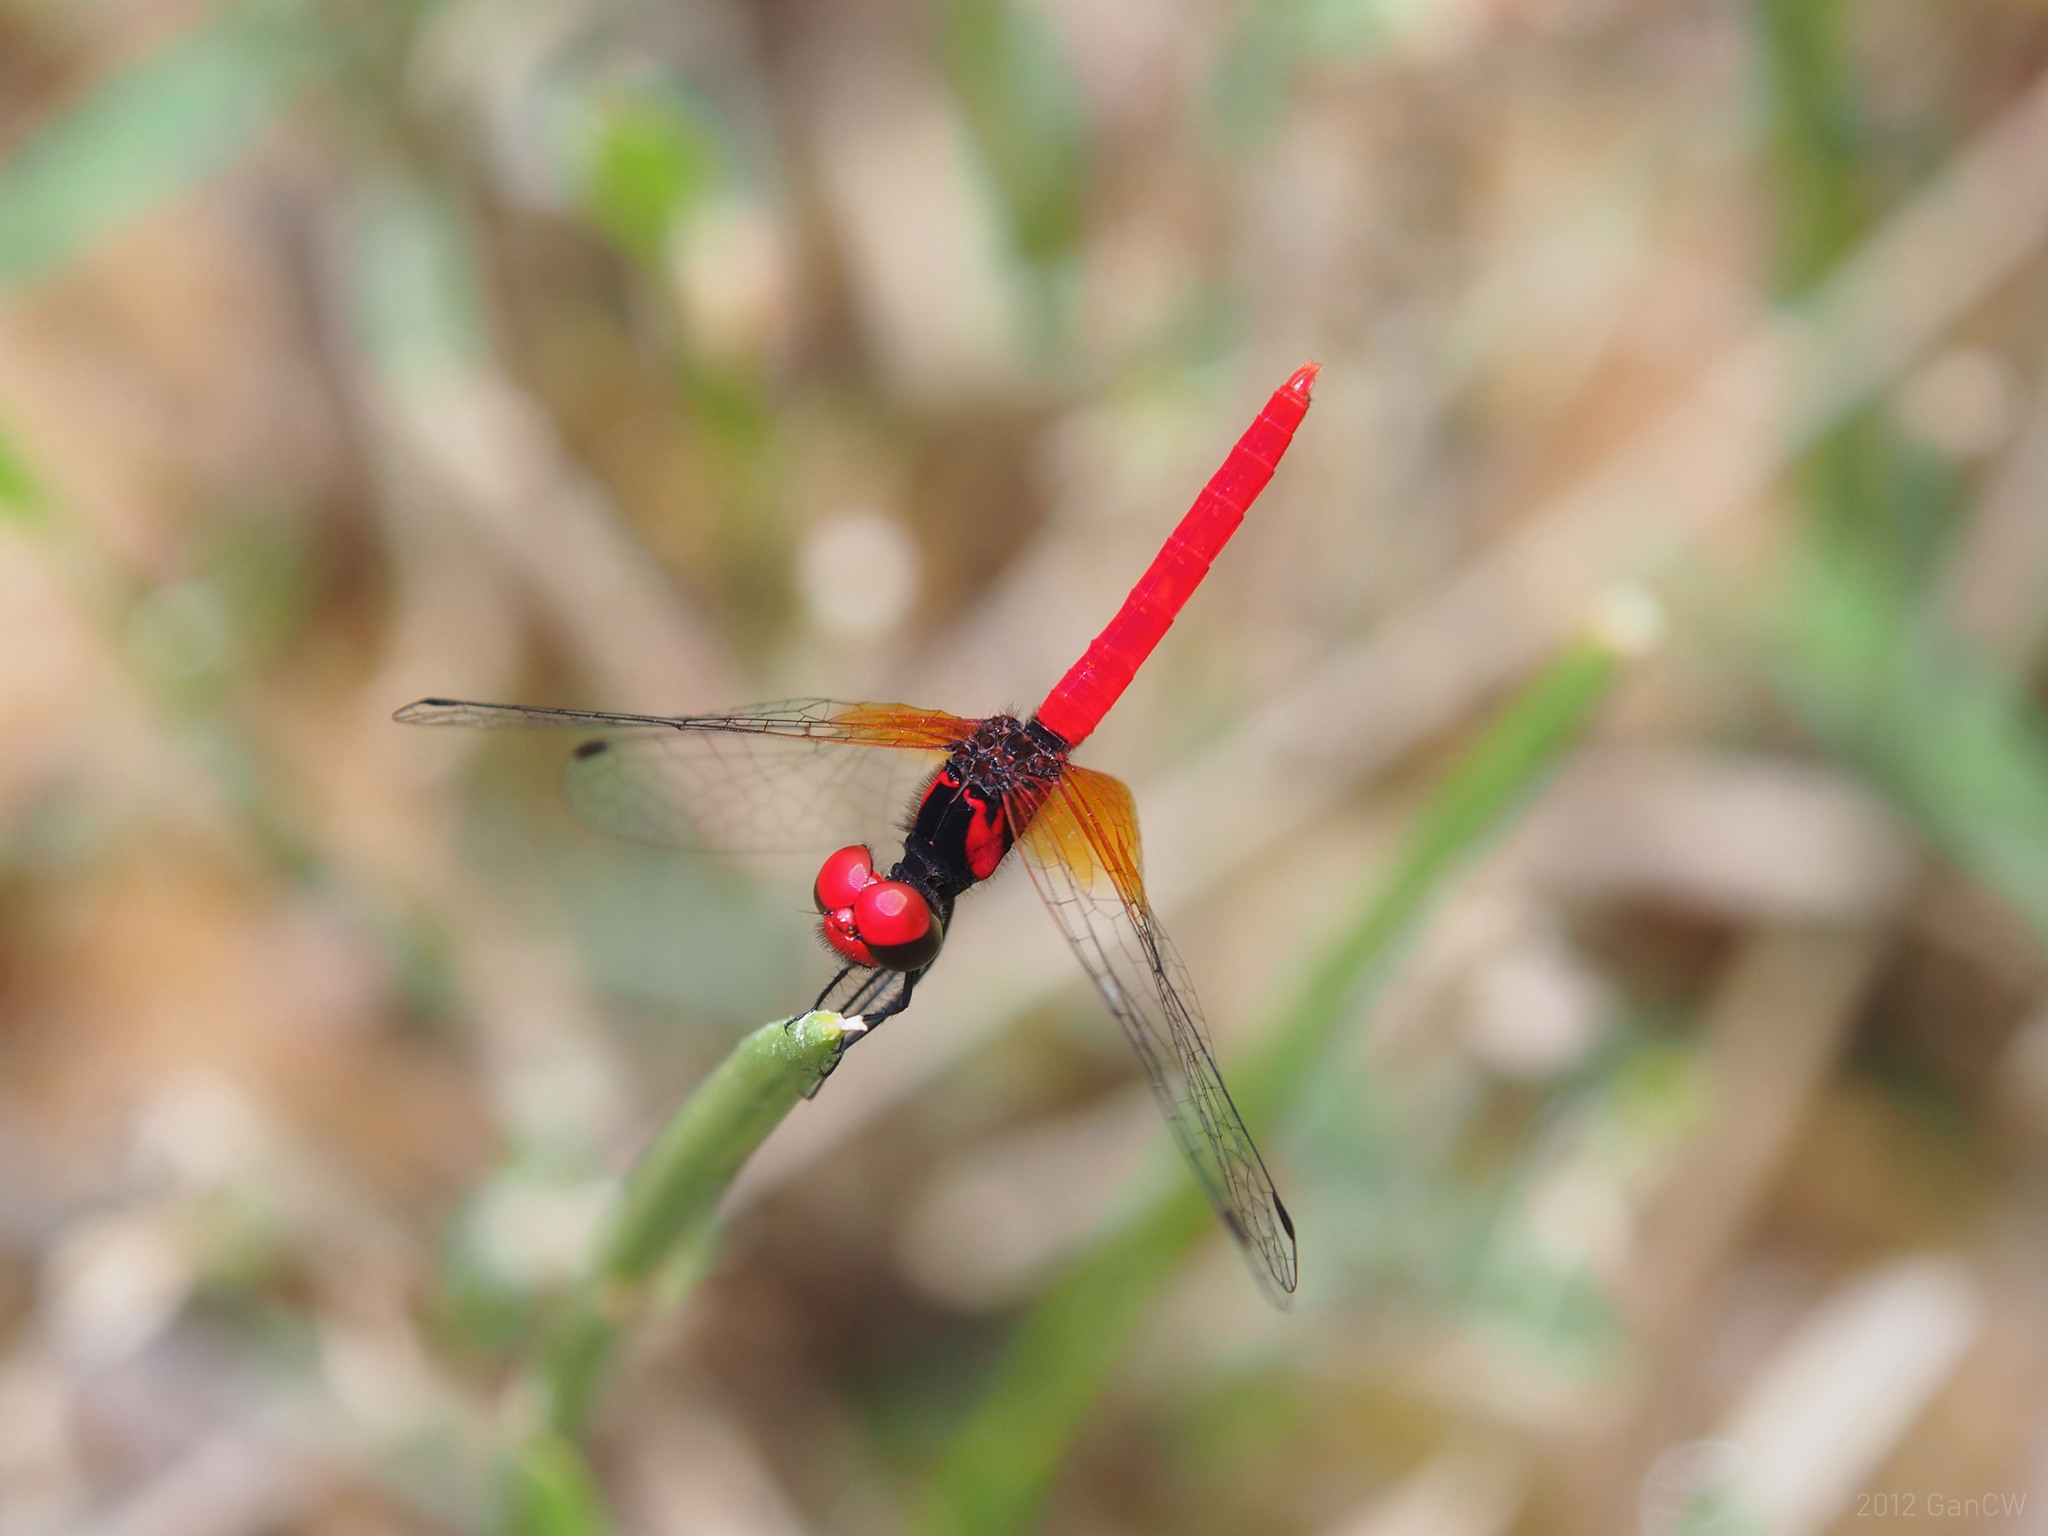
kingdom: Animalia
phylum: Arthropoda
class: Insecta
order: Odonata
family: Libellulidae
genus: Nannophya
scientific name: Nannophya pygmaea
